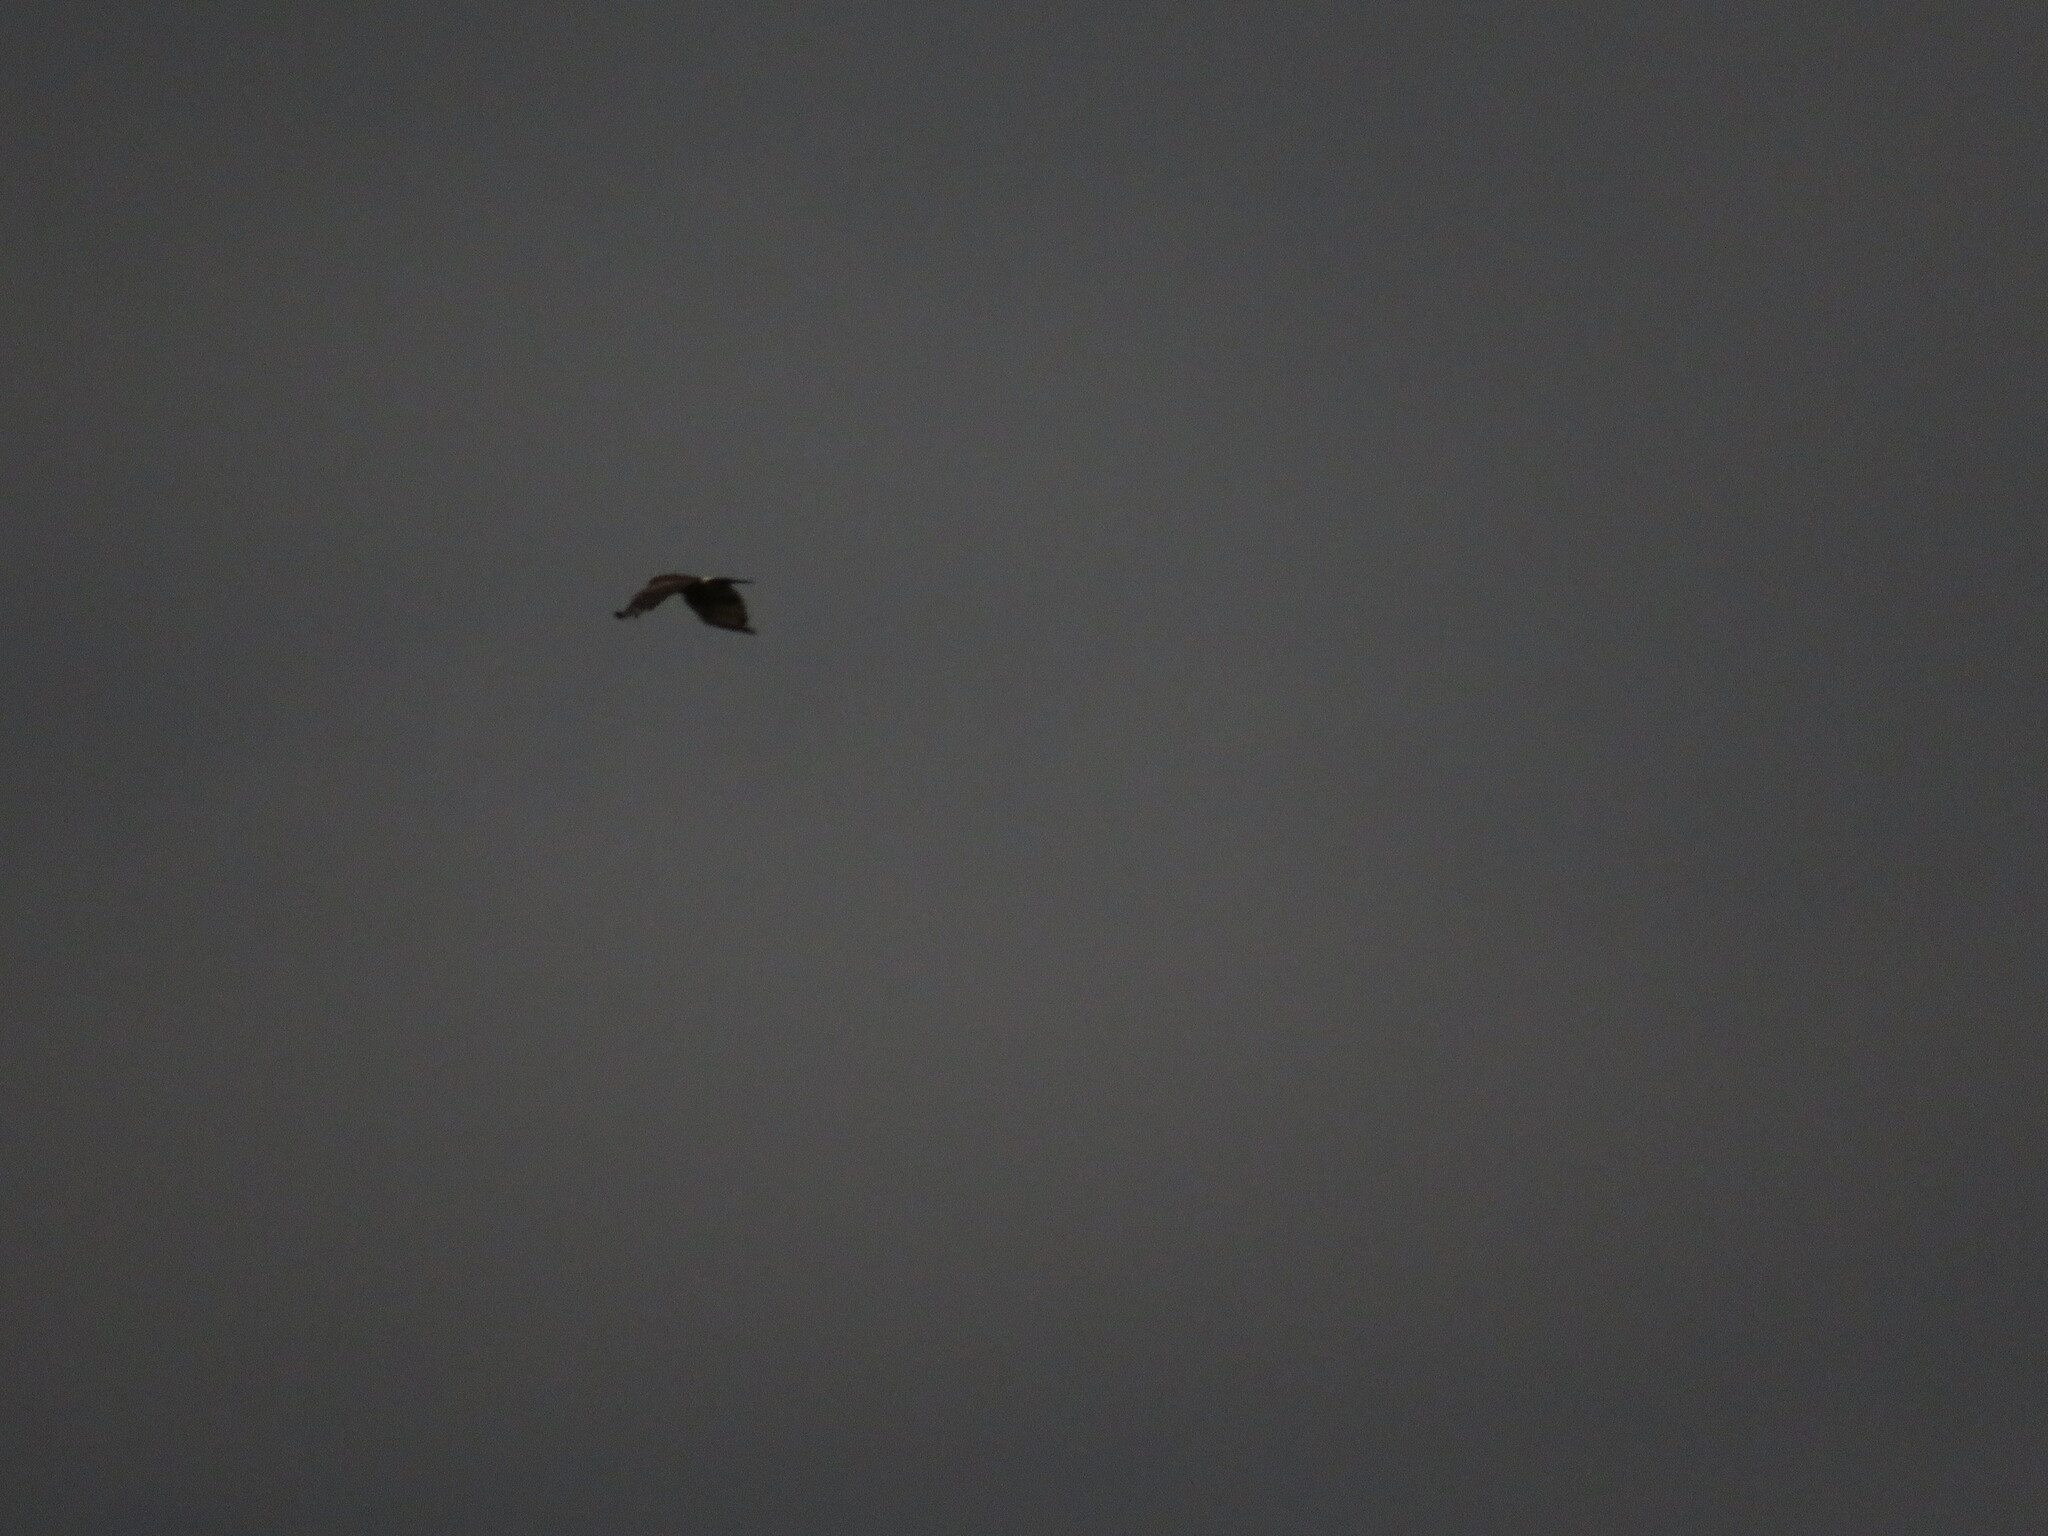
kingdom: Animalia
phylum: Chordata
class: Aves
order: Accipitriformes
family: Accipitridae
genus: Parabuteo
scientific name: Parabuteo unicinctus
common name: Harris's hawk
